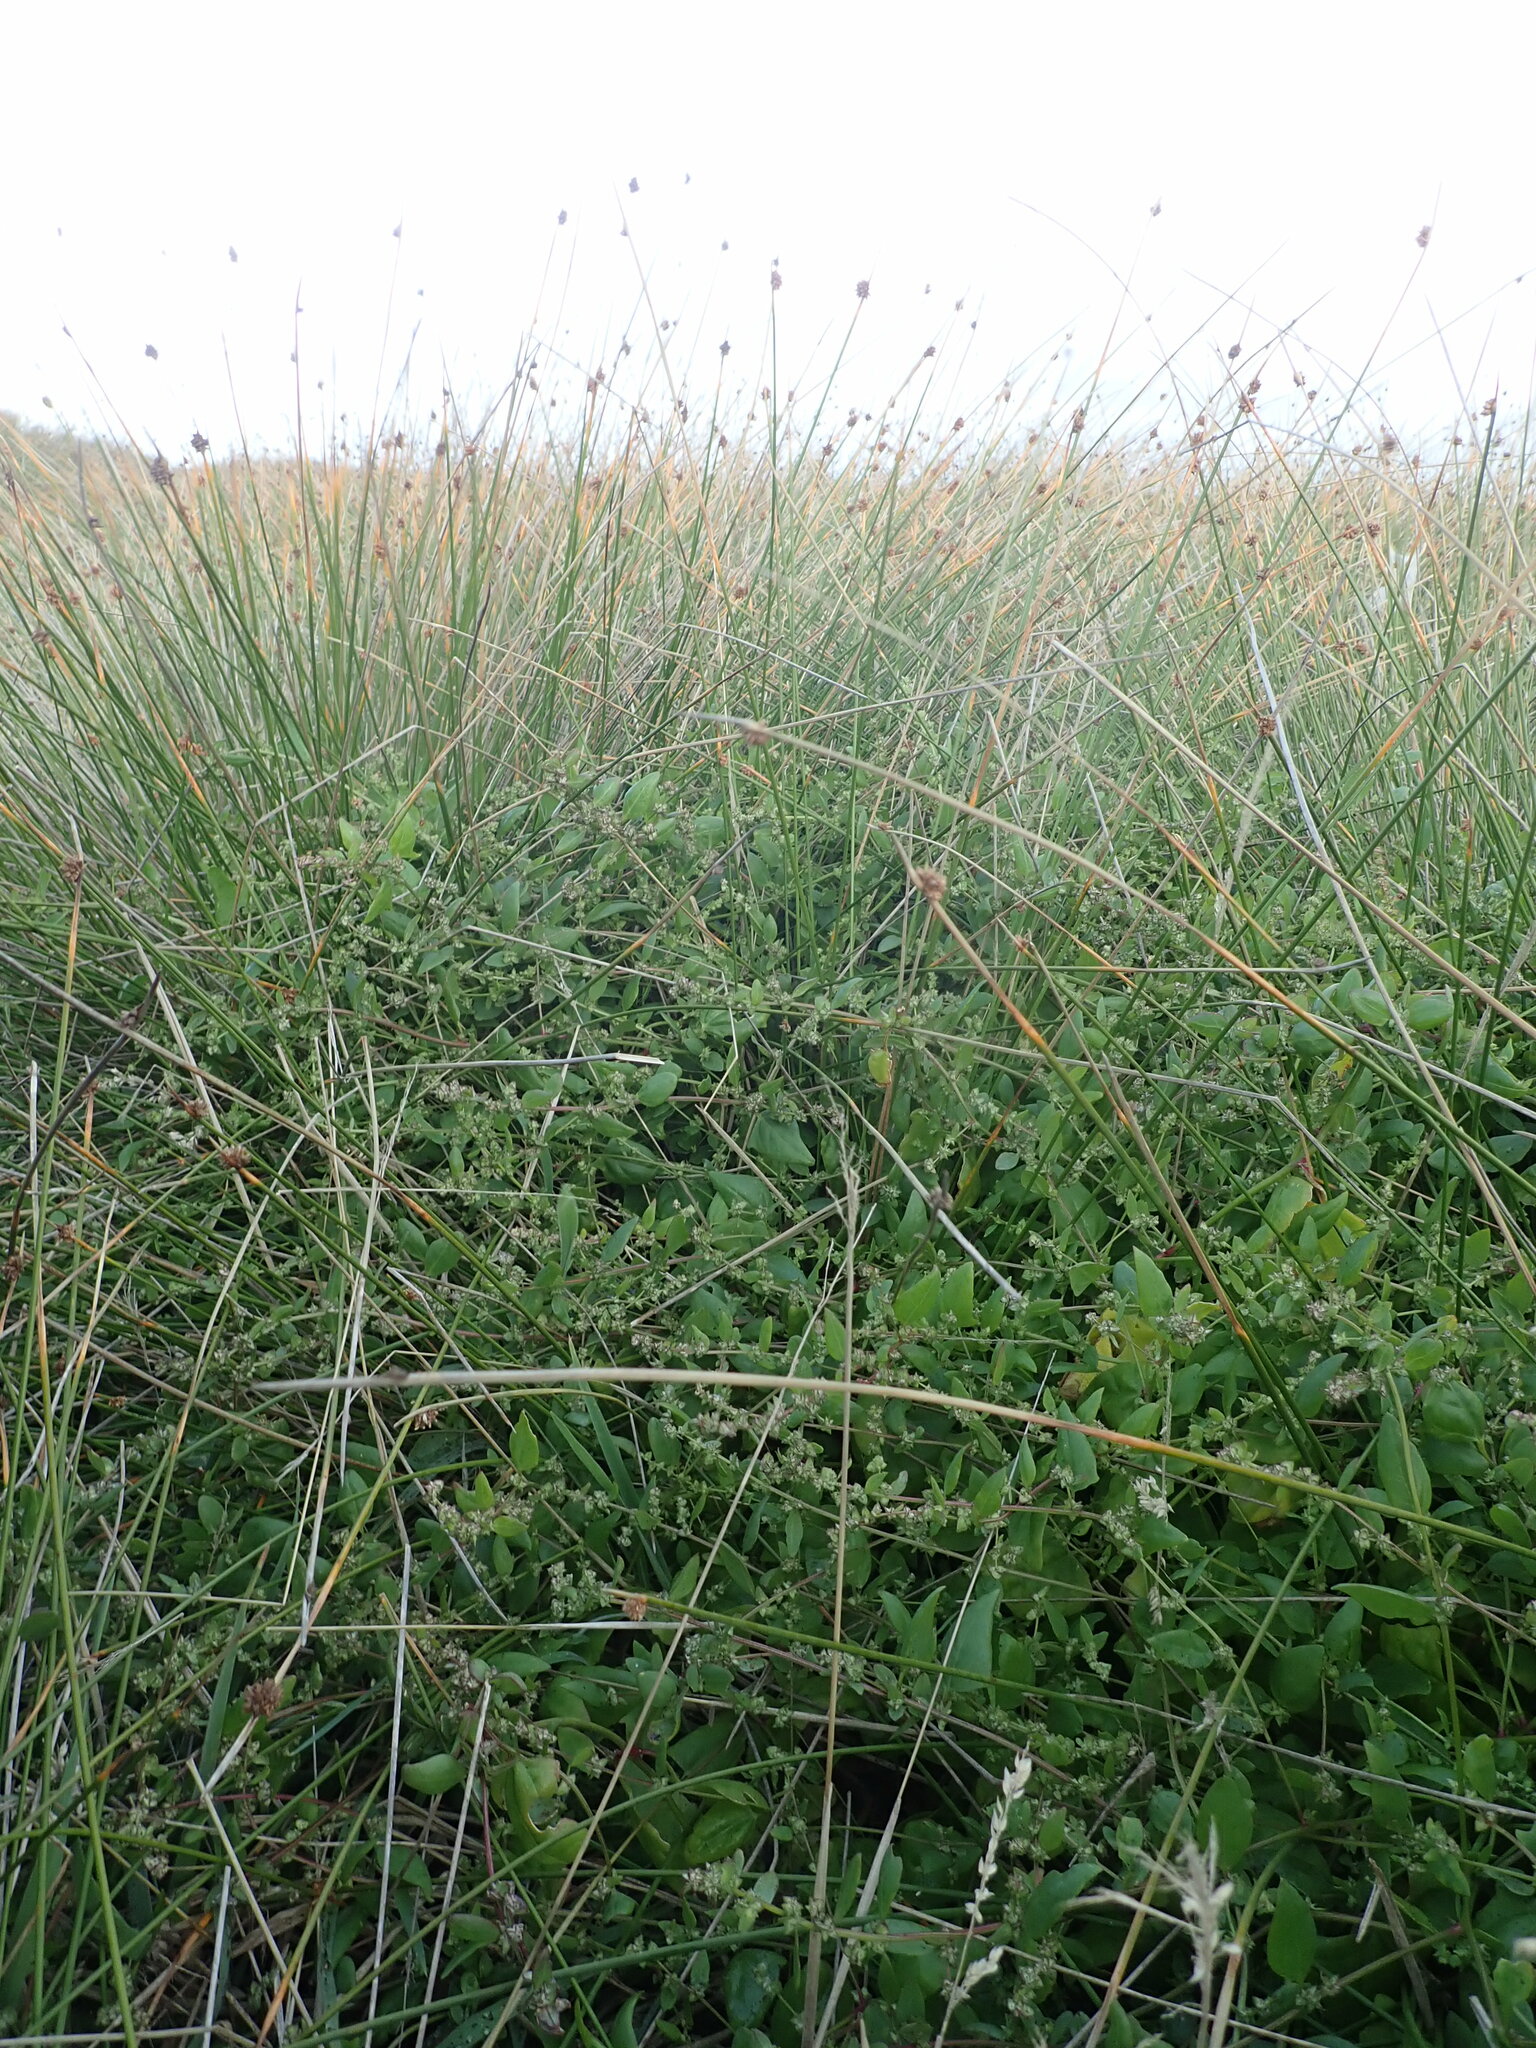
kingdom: Plantae
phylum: Tracheophyta
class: Magnoliopsida
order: Caryophyllales
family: Amaranthaceae
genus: Atriplex
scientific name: Atriplex prostrata
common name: Spear-leaved orache
